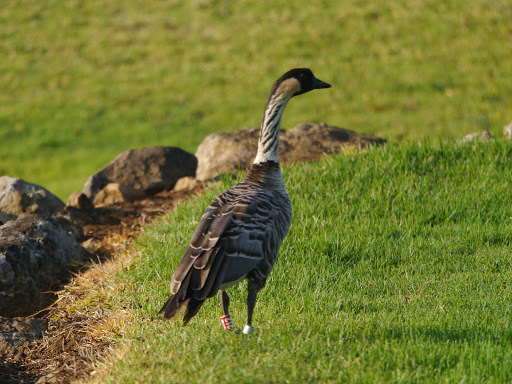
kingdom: Animalia
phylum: Chordata
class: Aves
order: Anseriformes
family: Anatidae
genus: Branta
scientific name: Branta sandvicensis
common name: Nene
